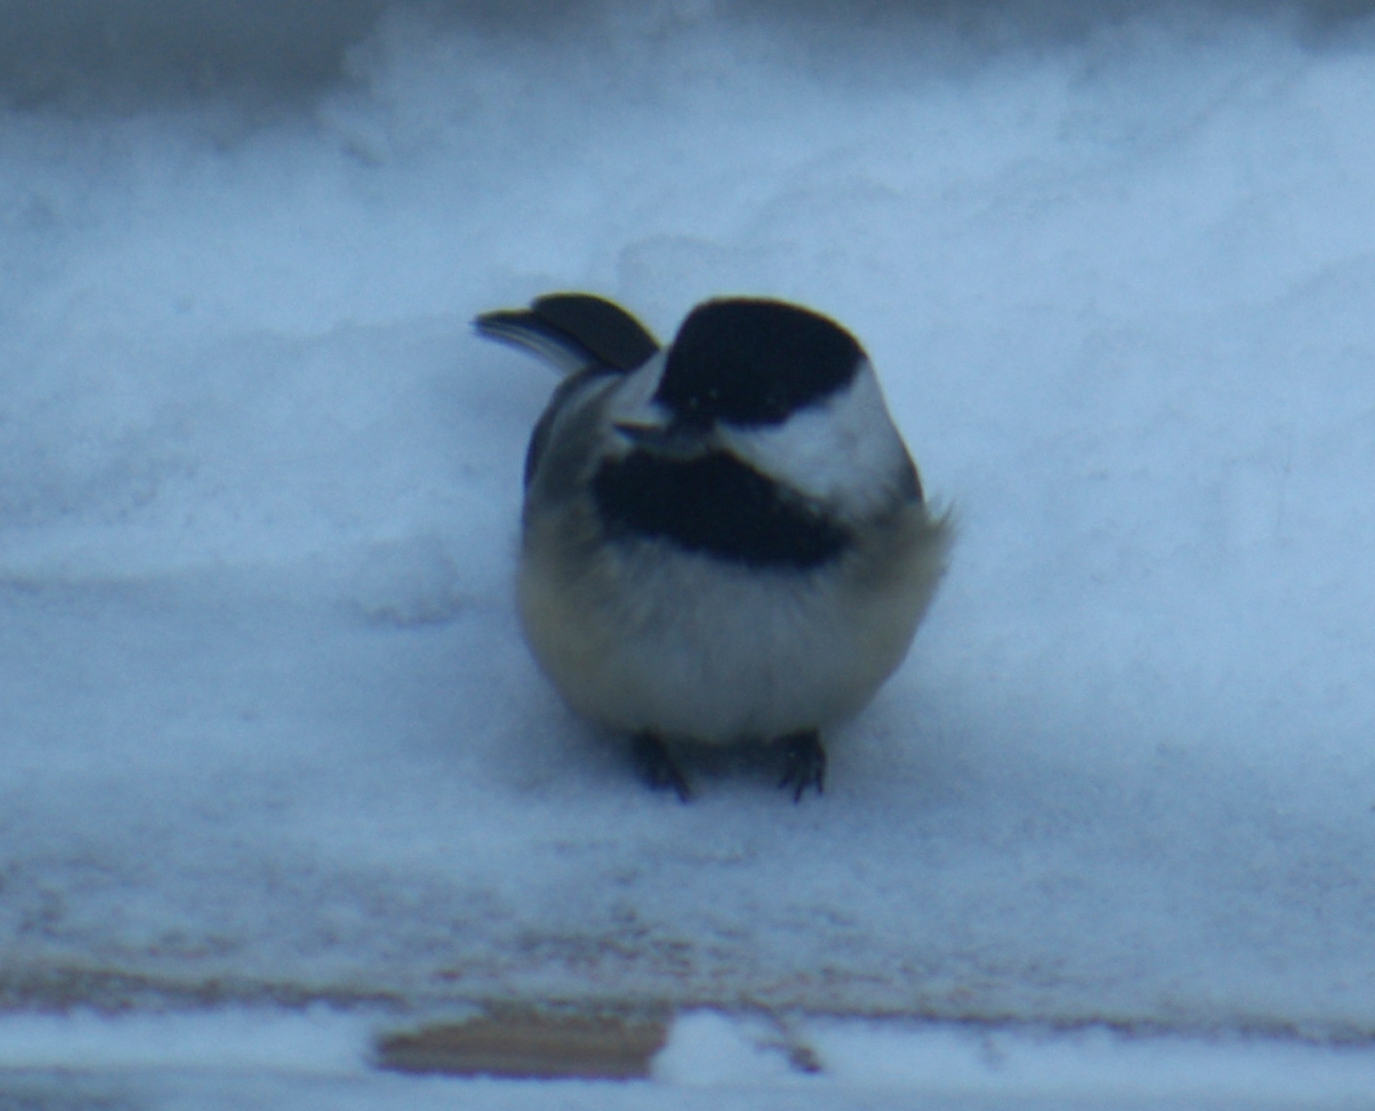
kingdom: Animalia
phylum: Chordata
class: Aves
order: Passeriformes
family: Paridae
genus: Poecile
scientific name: Poecile atricapillus
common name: Black-capped chickadee
